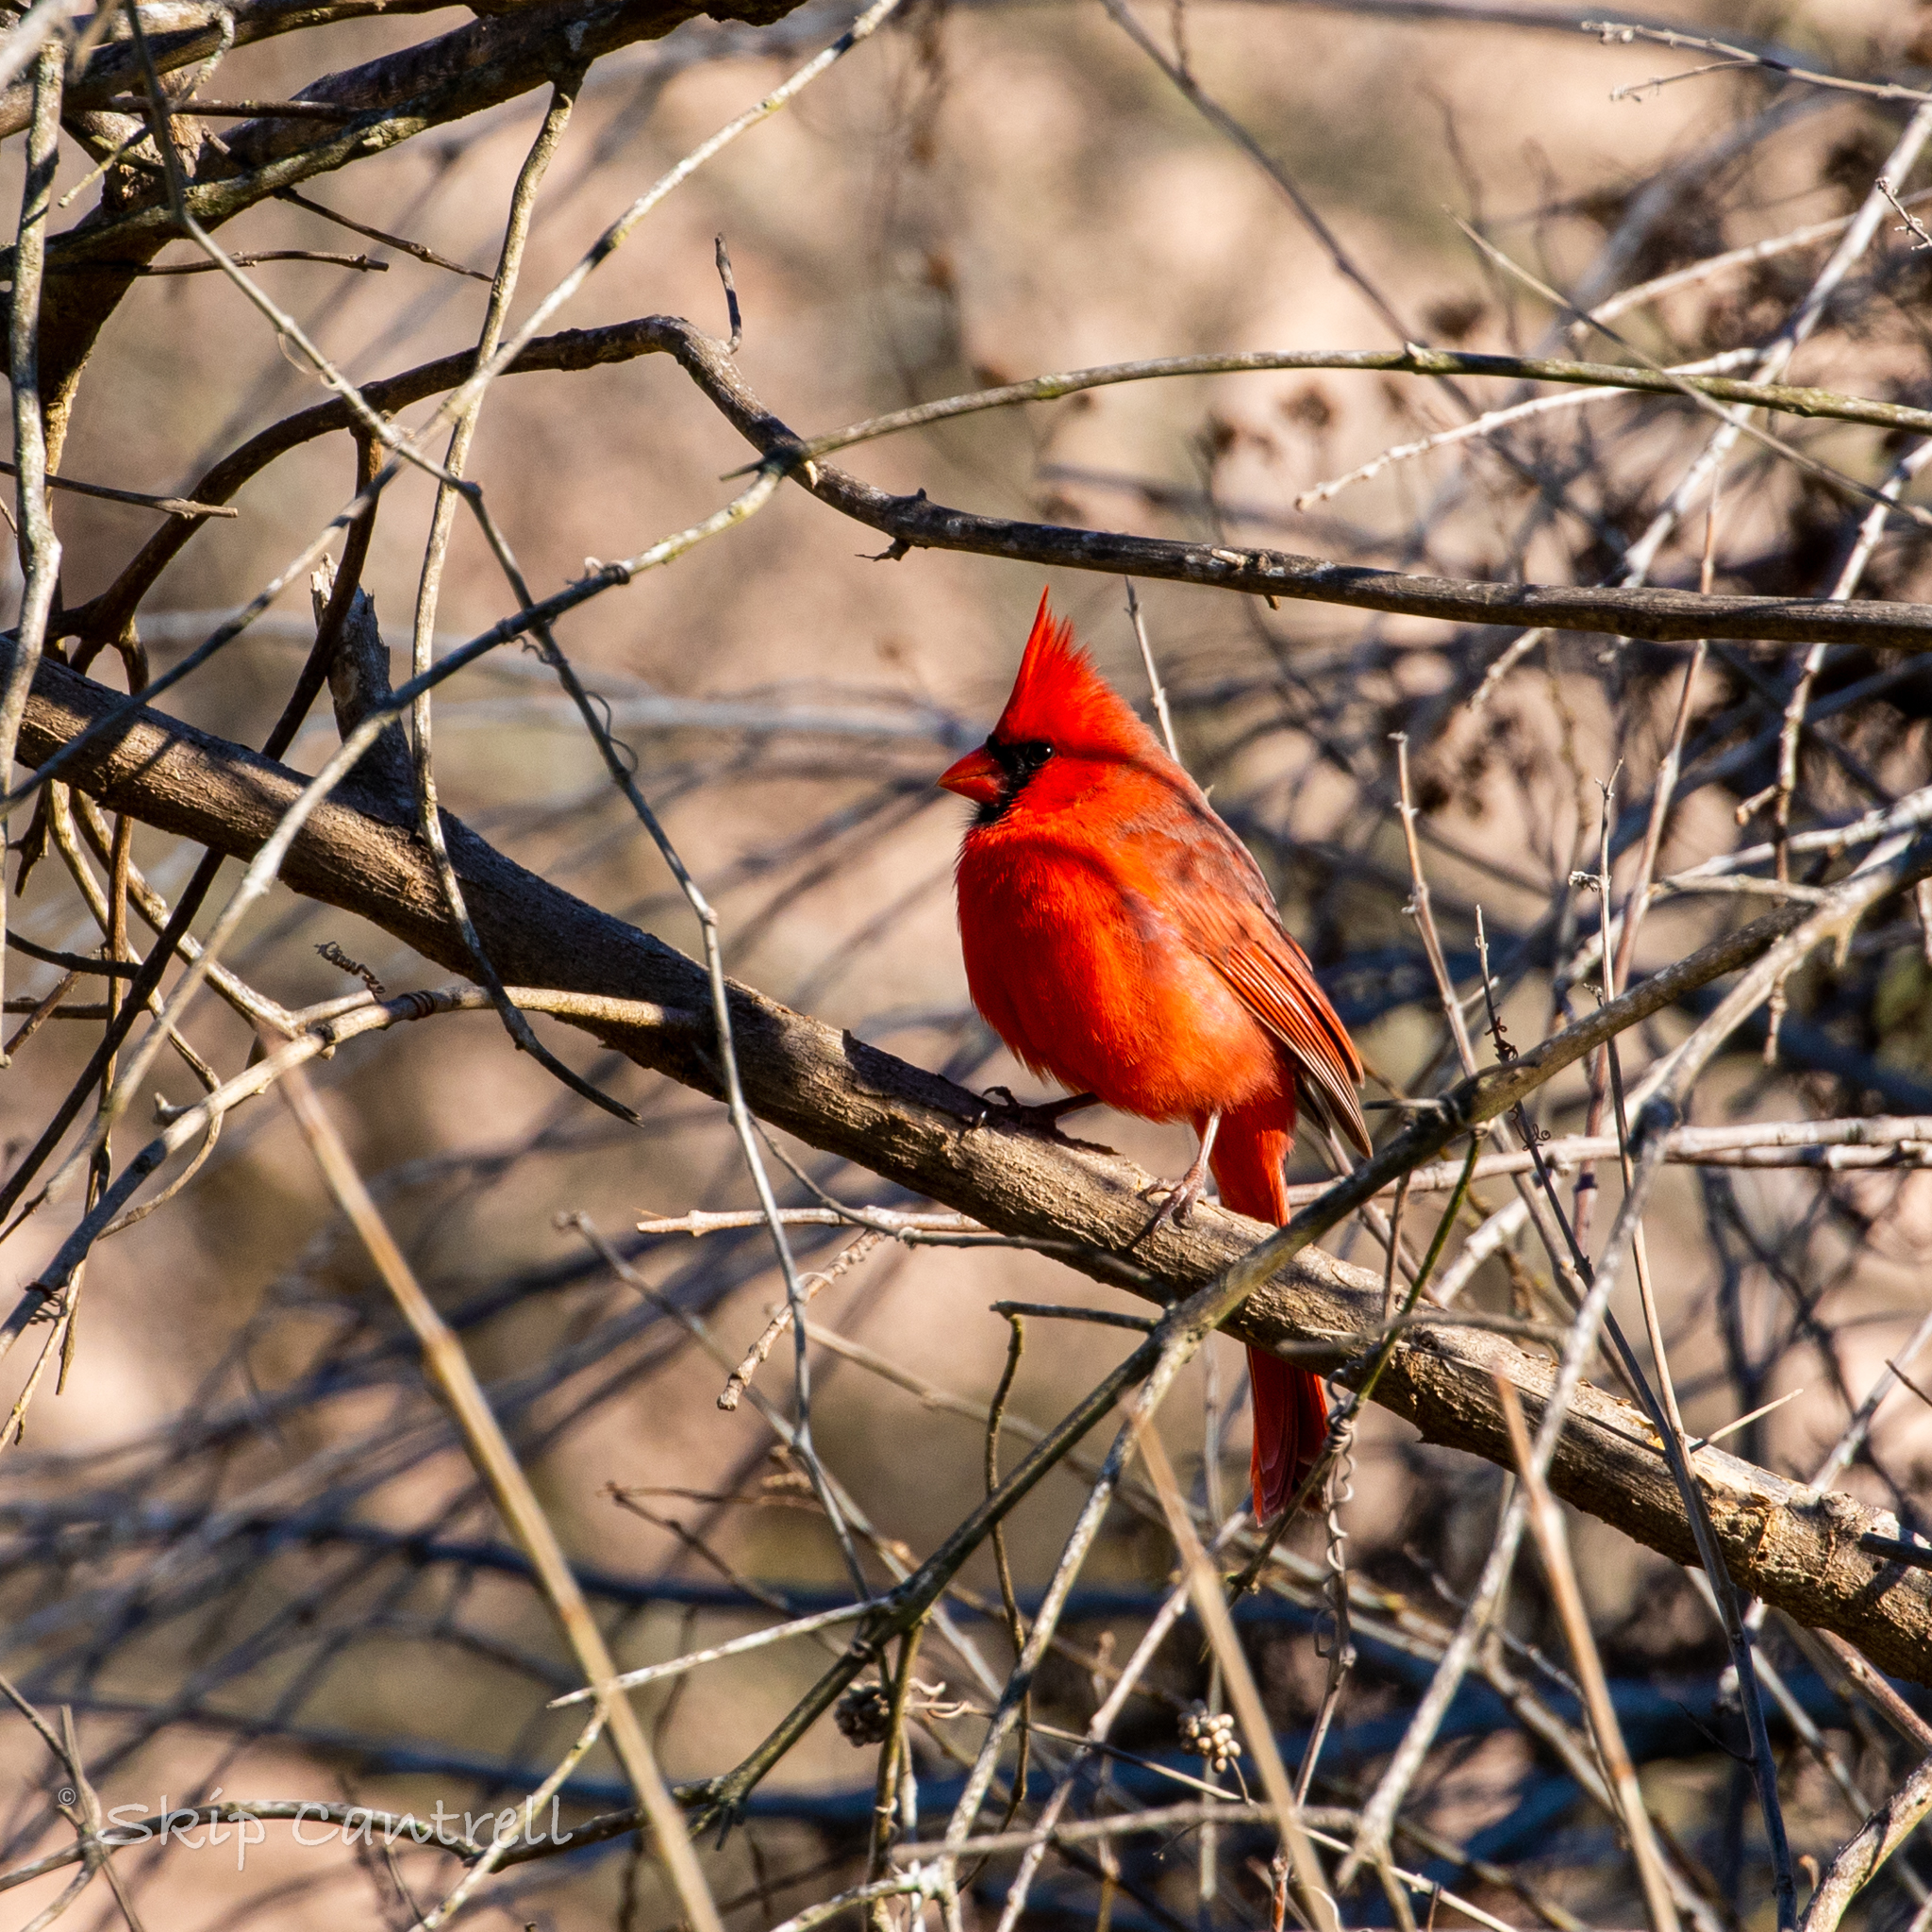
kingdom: Animalia
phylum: Chordata
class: Aves
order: Passeriformes
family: Cardinalidae
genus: Cardinalis
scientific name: Cardinalis cardinalis
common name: Northern cardinal
